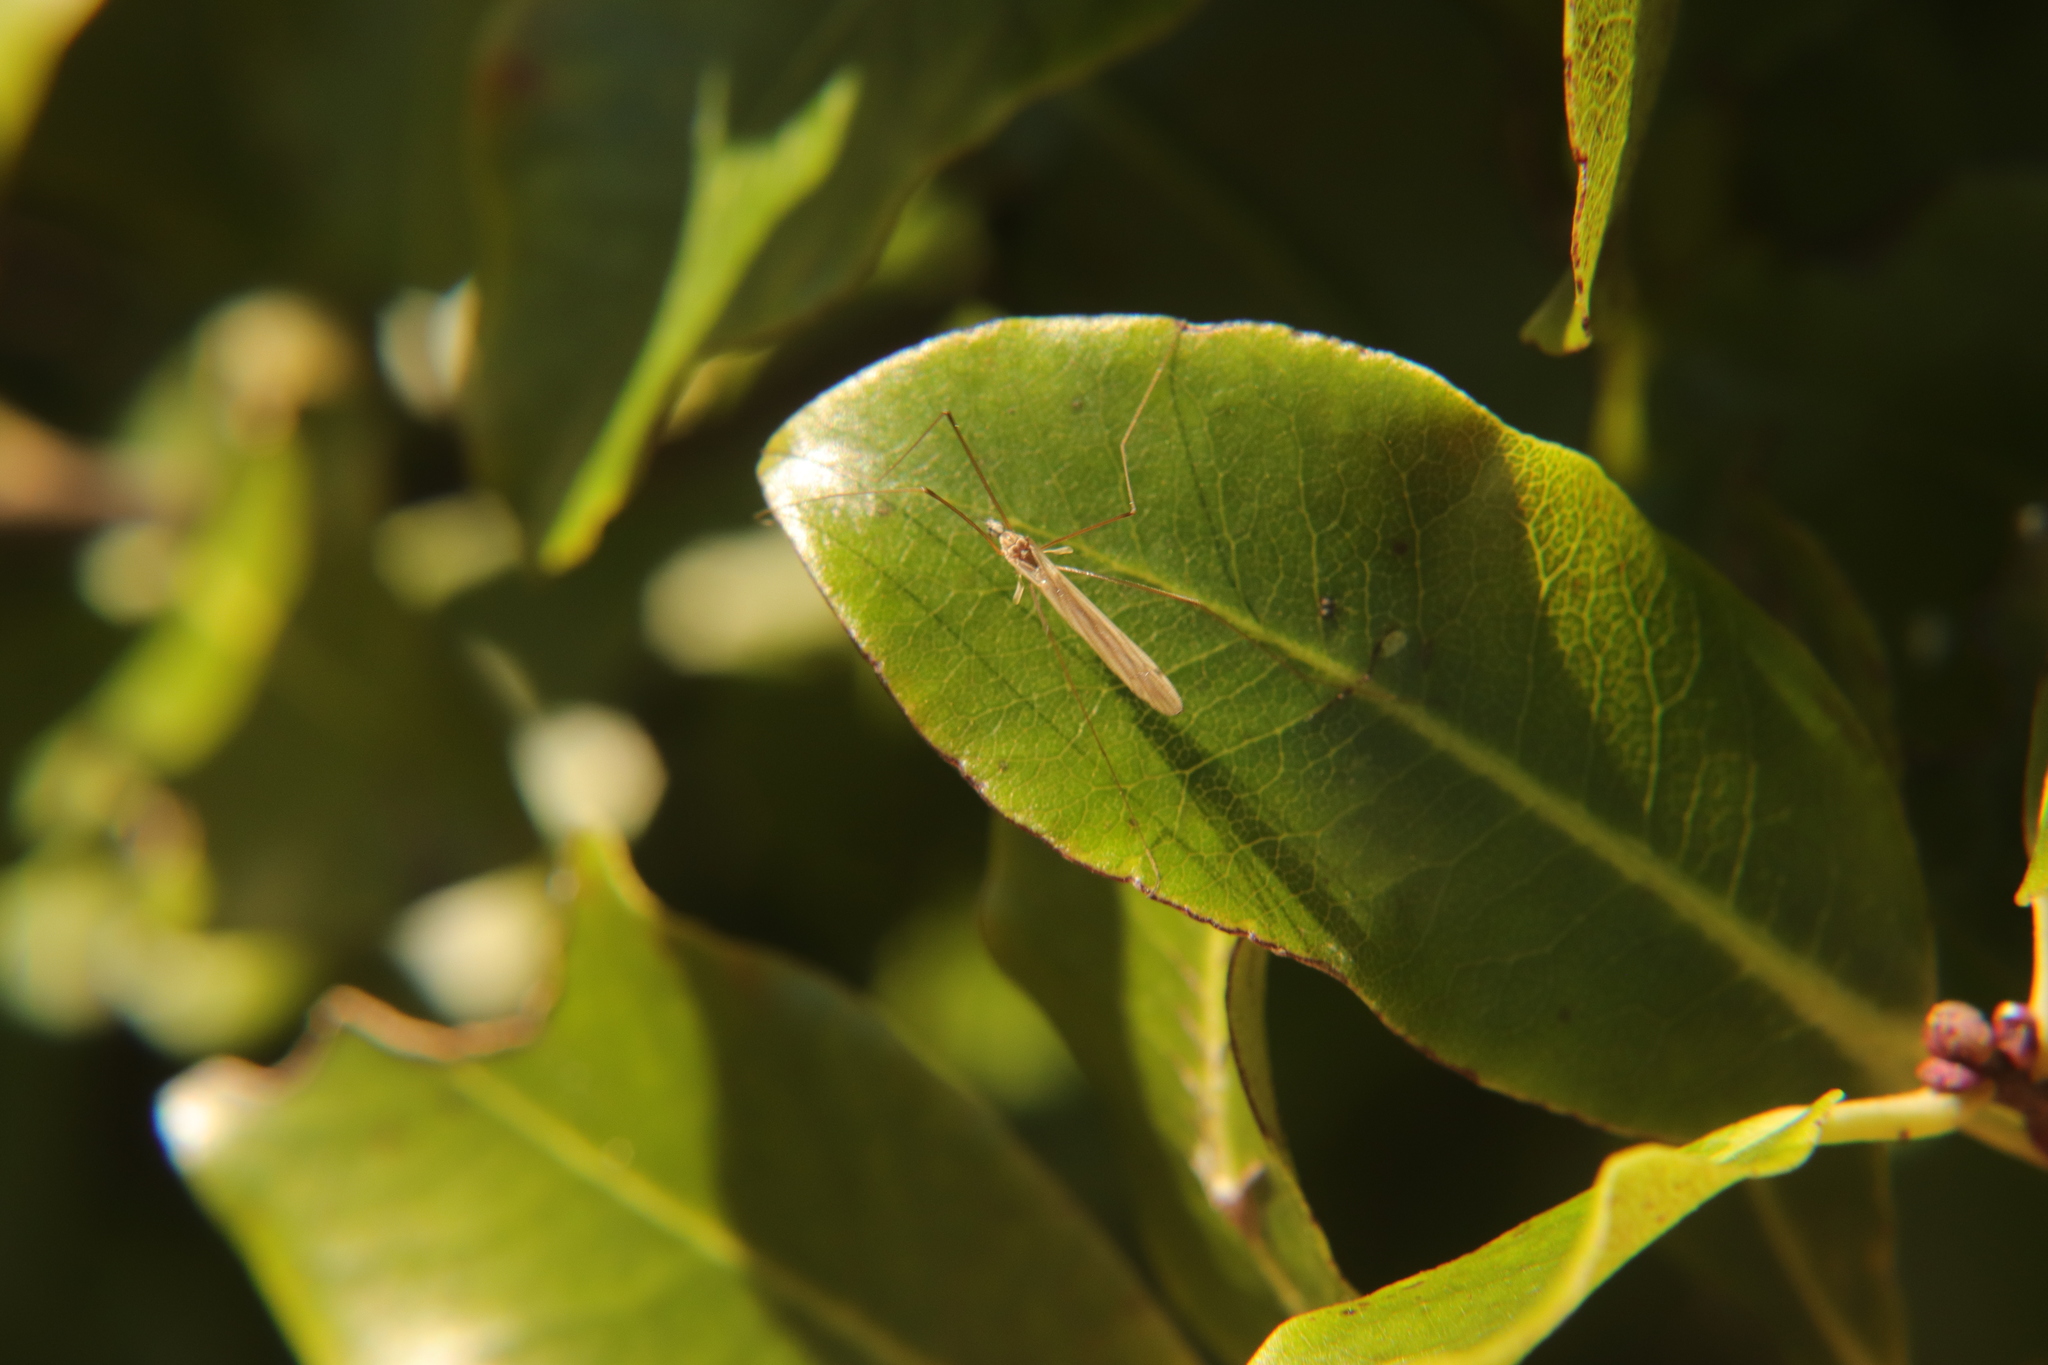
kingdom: Animalia
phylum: Arthropoda
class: Insecta
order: Diptera
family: Limoniidae
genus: Dicranomyia
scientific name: Dicranomyia aegrotans
